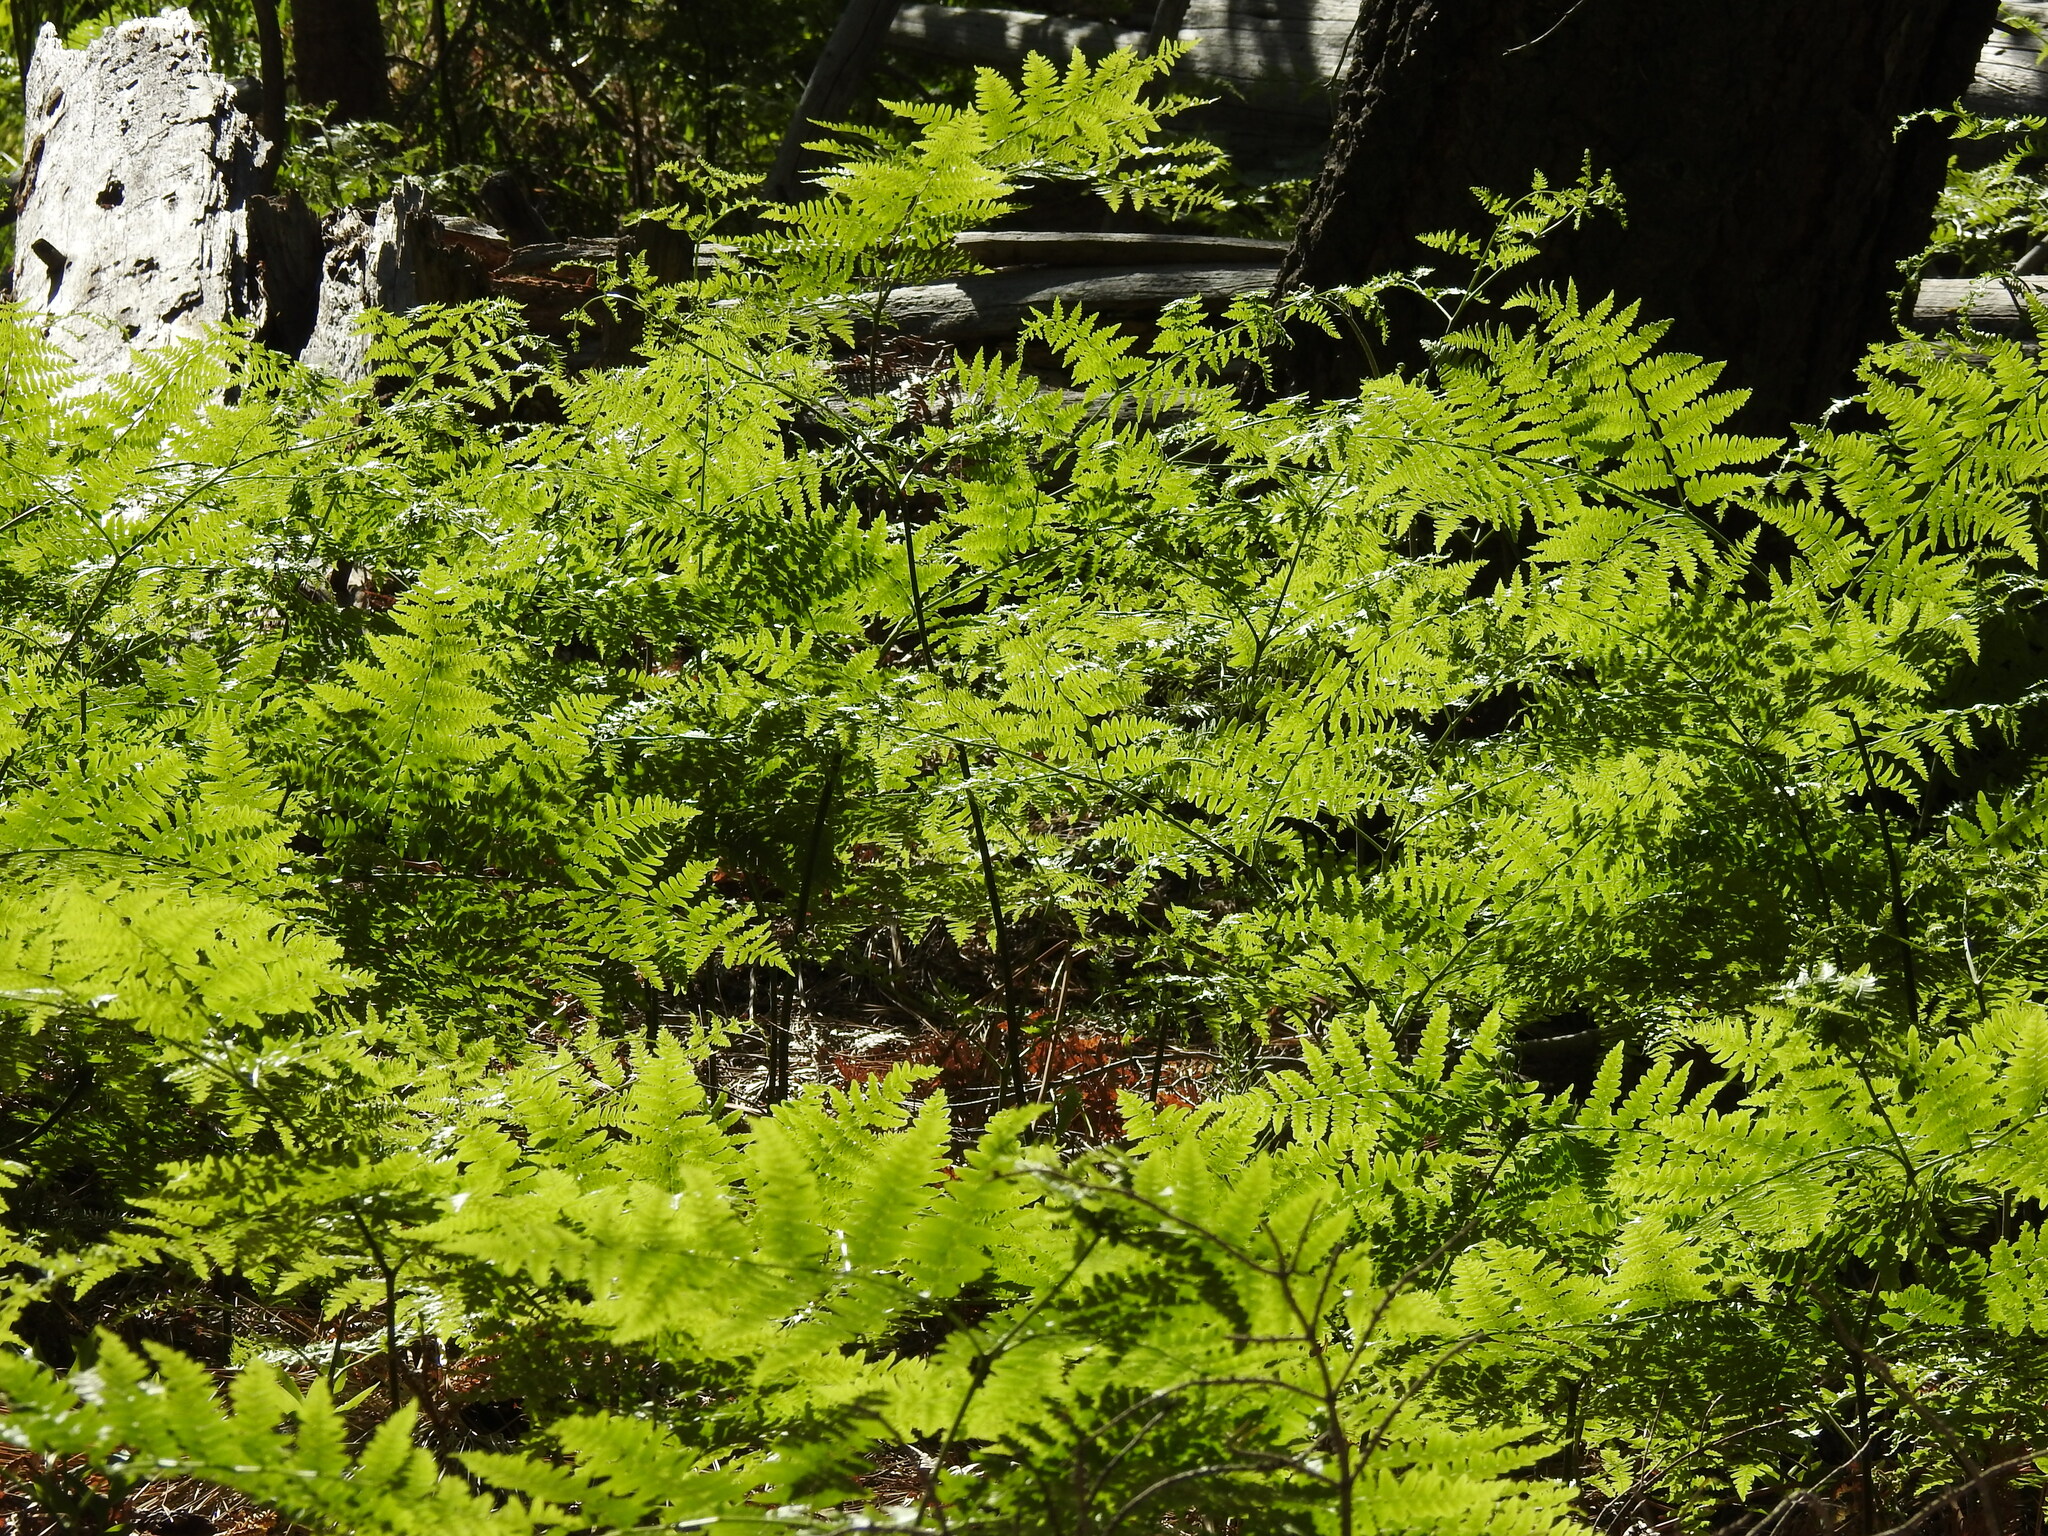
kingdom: Plantae
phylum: Tracheophyta
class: Polypodiopsida
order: Polypodiales
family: Dennstaedtiaceae
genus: Pteridium
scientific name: Pteridium aquilinum
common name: Bracken
